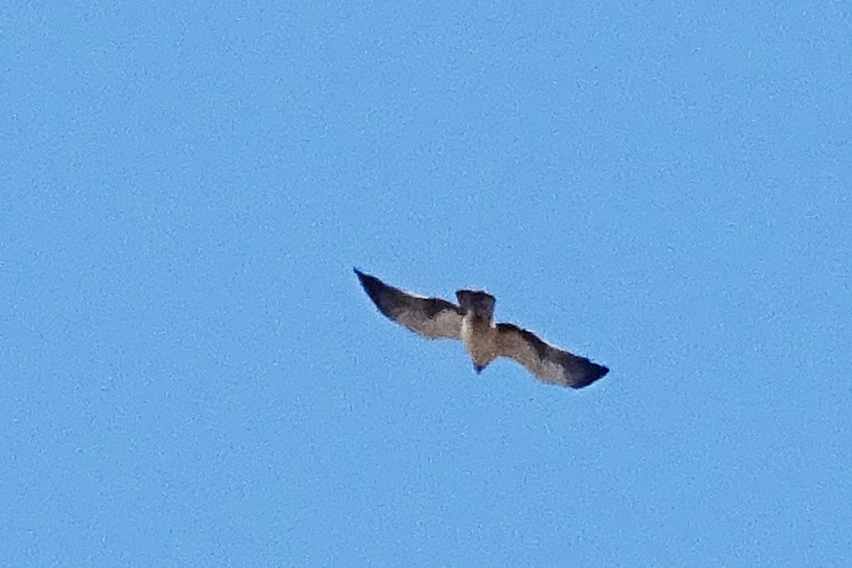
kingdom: Animalia
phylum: Chordata
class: Aves
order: Accipitriformes
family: Accipitridae
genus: Hieraaetus
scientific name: Hieraaetus pennatus
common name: Booted eagle
